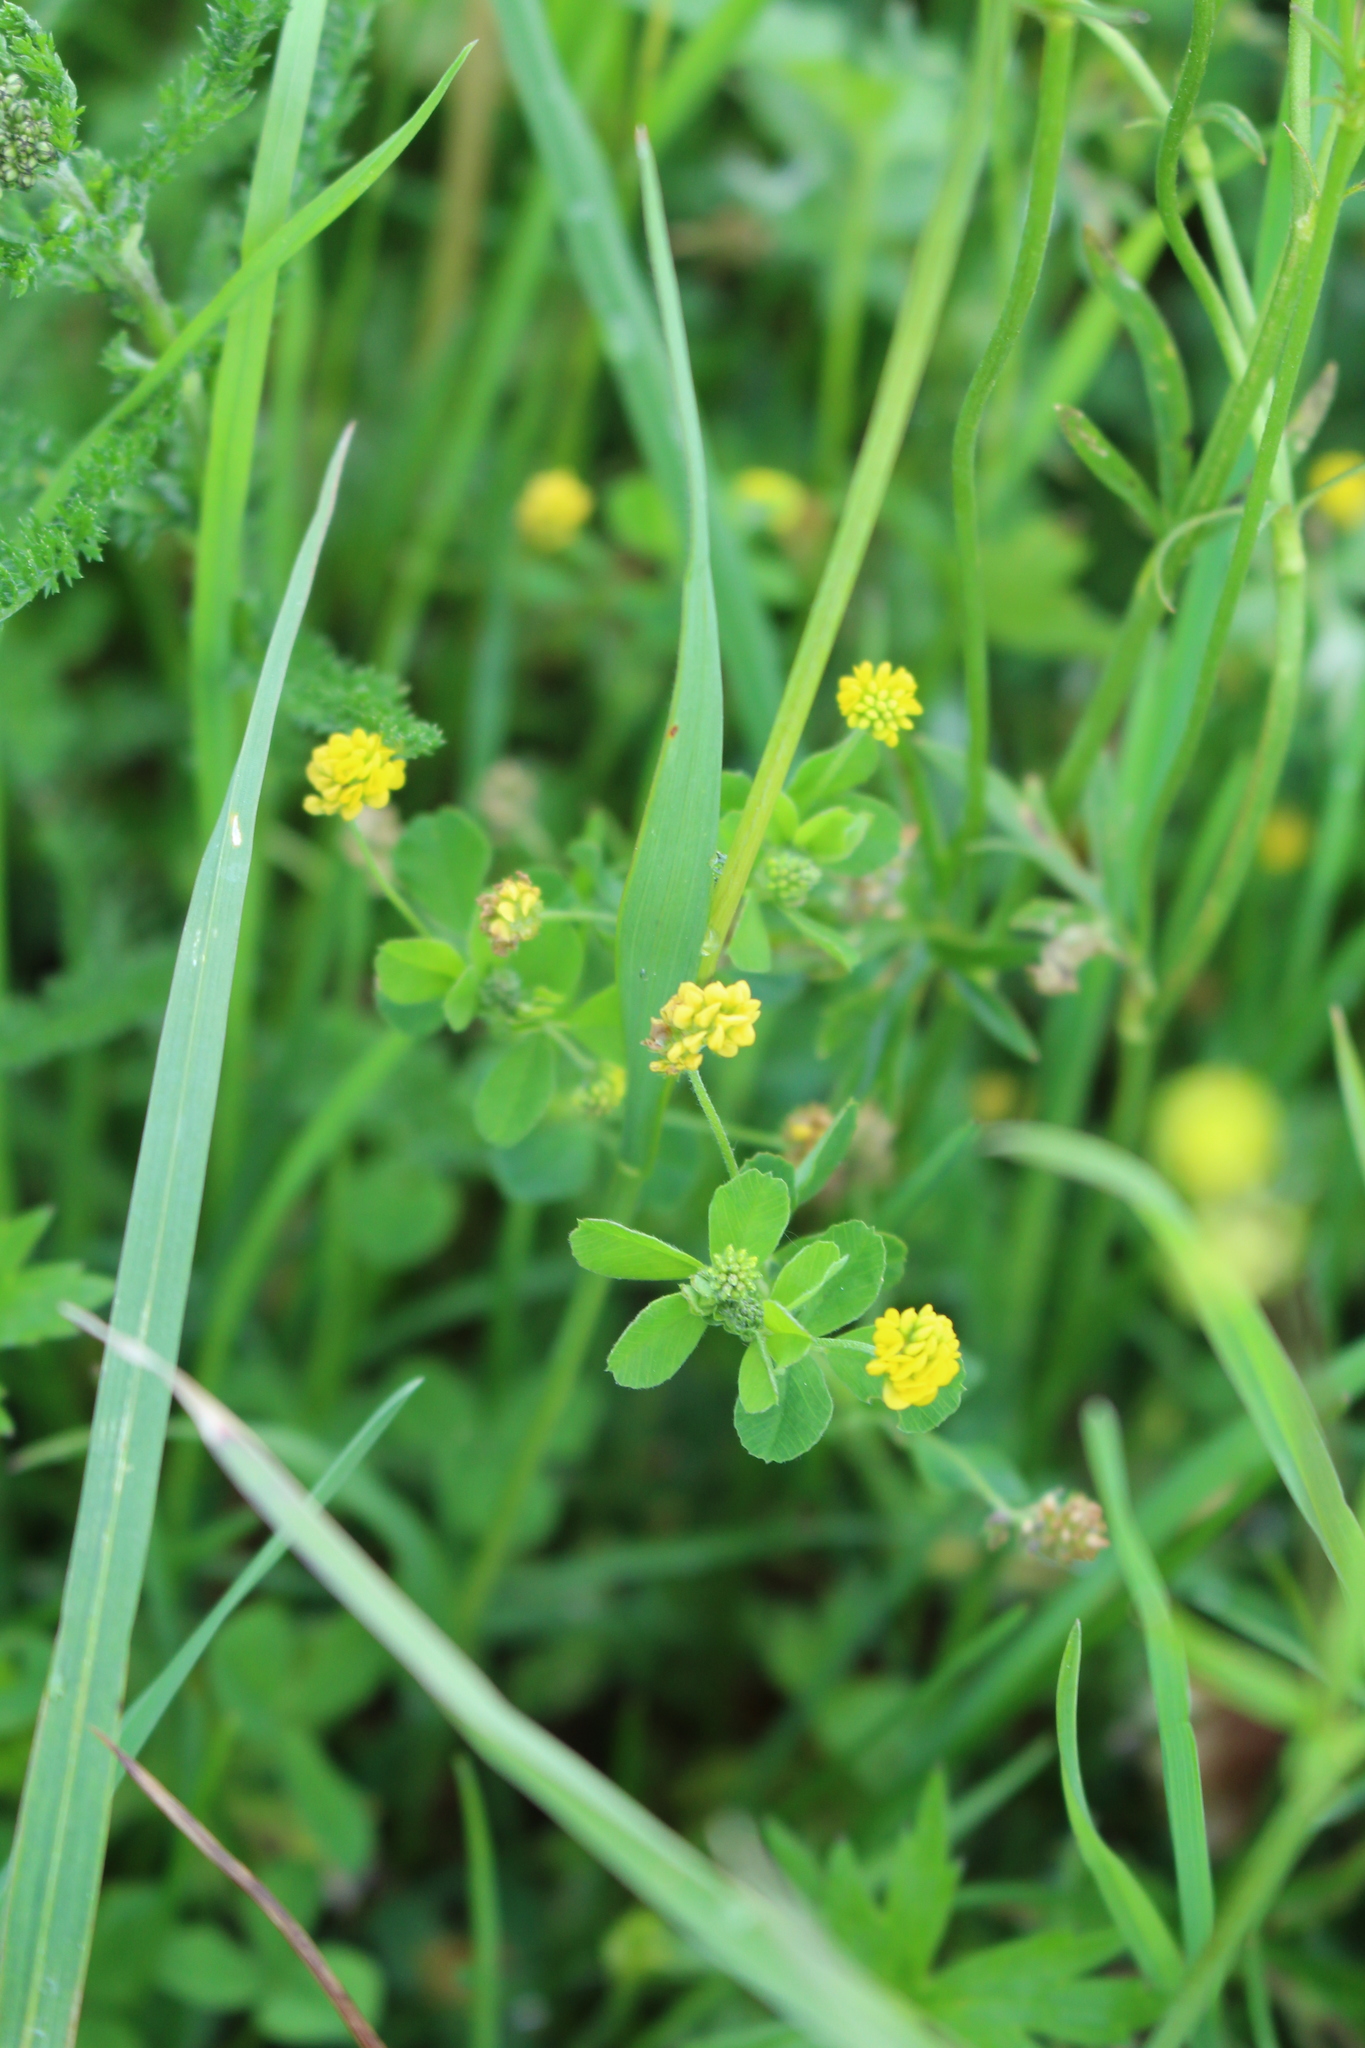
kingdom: Plantae
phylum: Tracheophyta
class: Magnoliopsida
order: Fabales
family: Fabaceae
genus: Medicago
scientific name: Medicago lupulina
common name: Black medick
